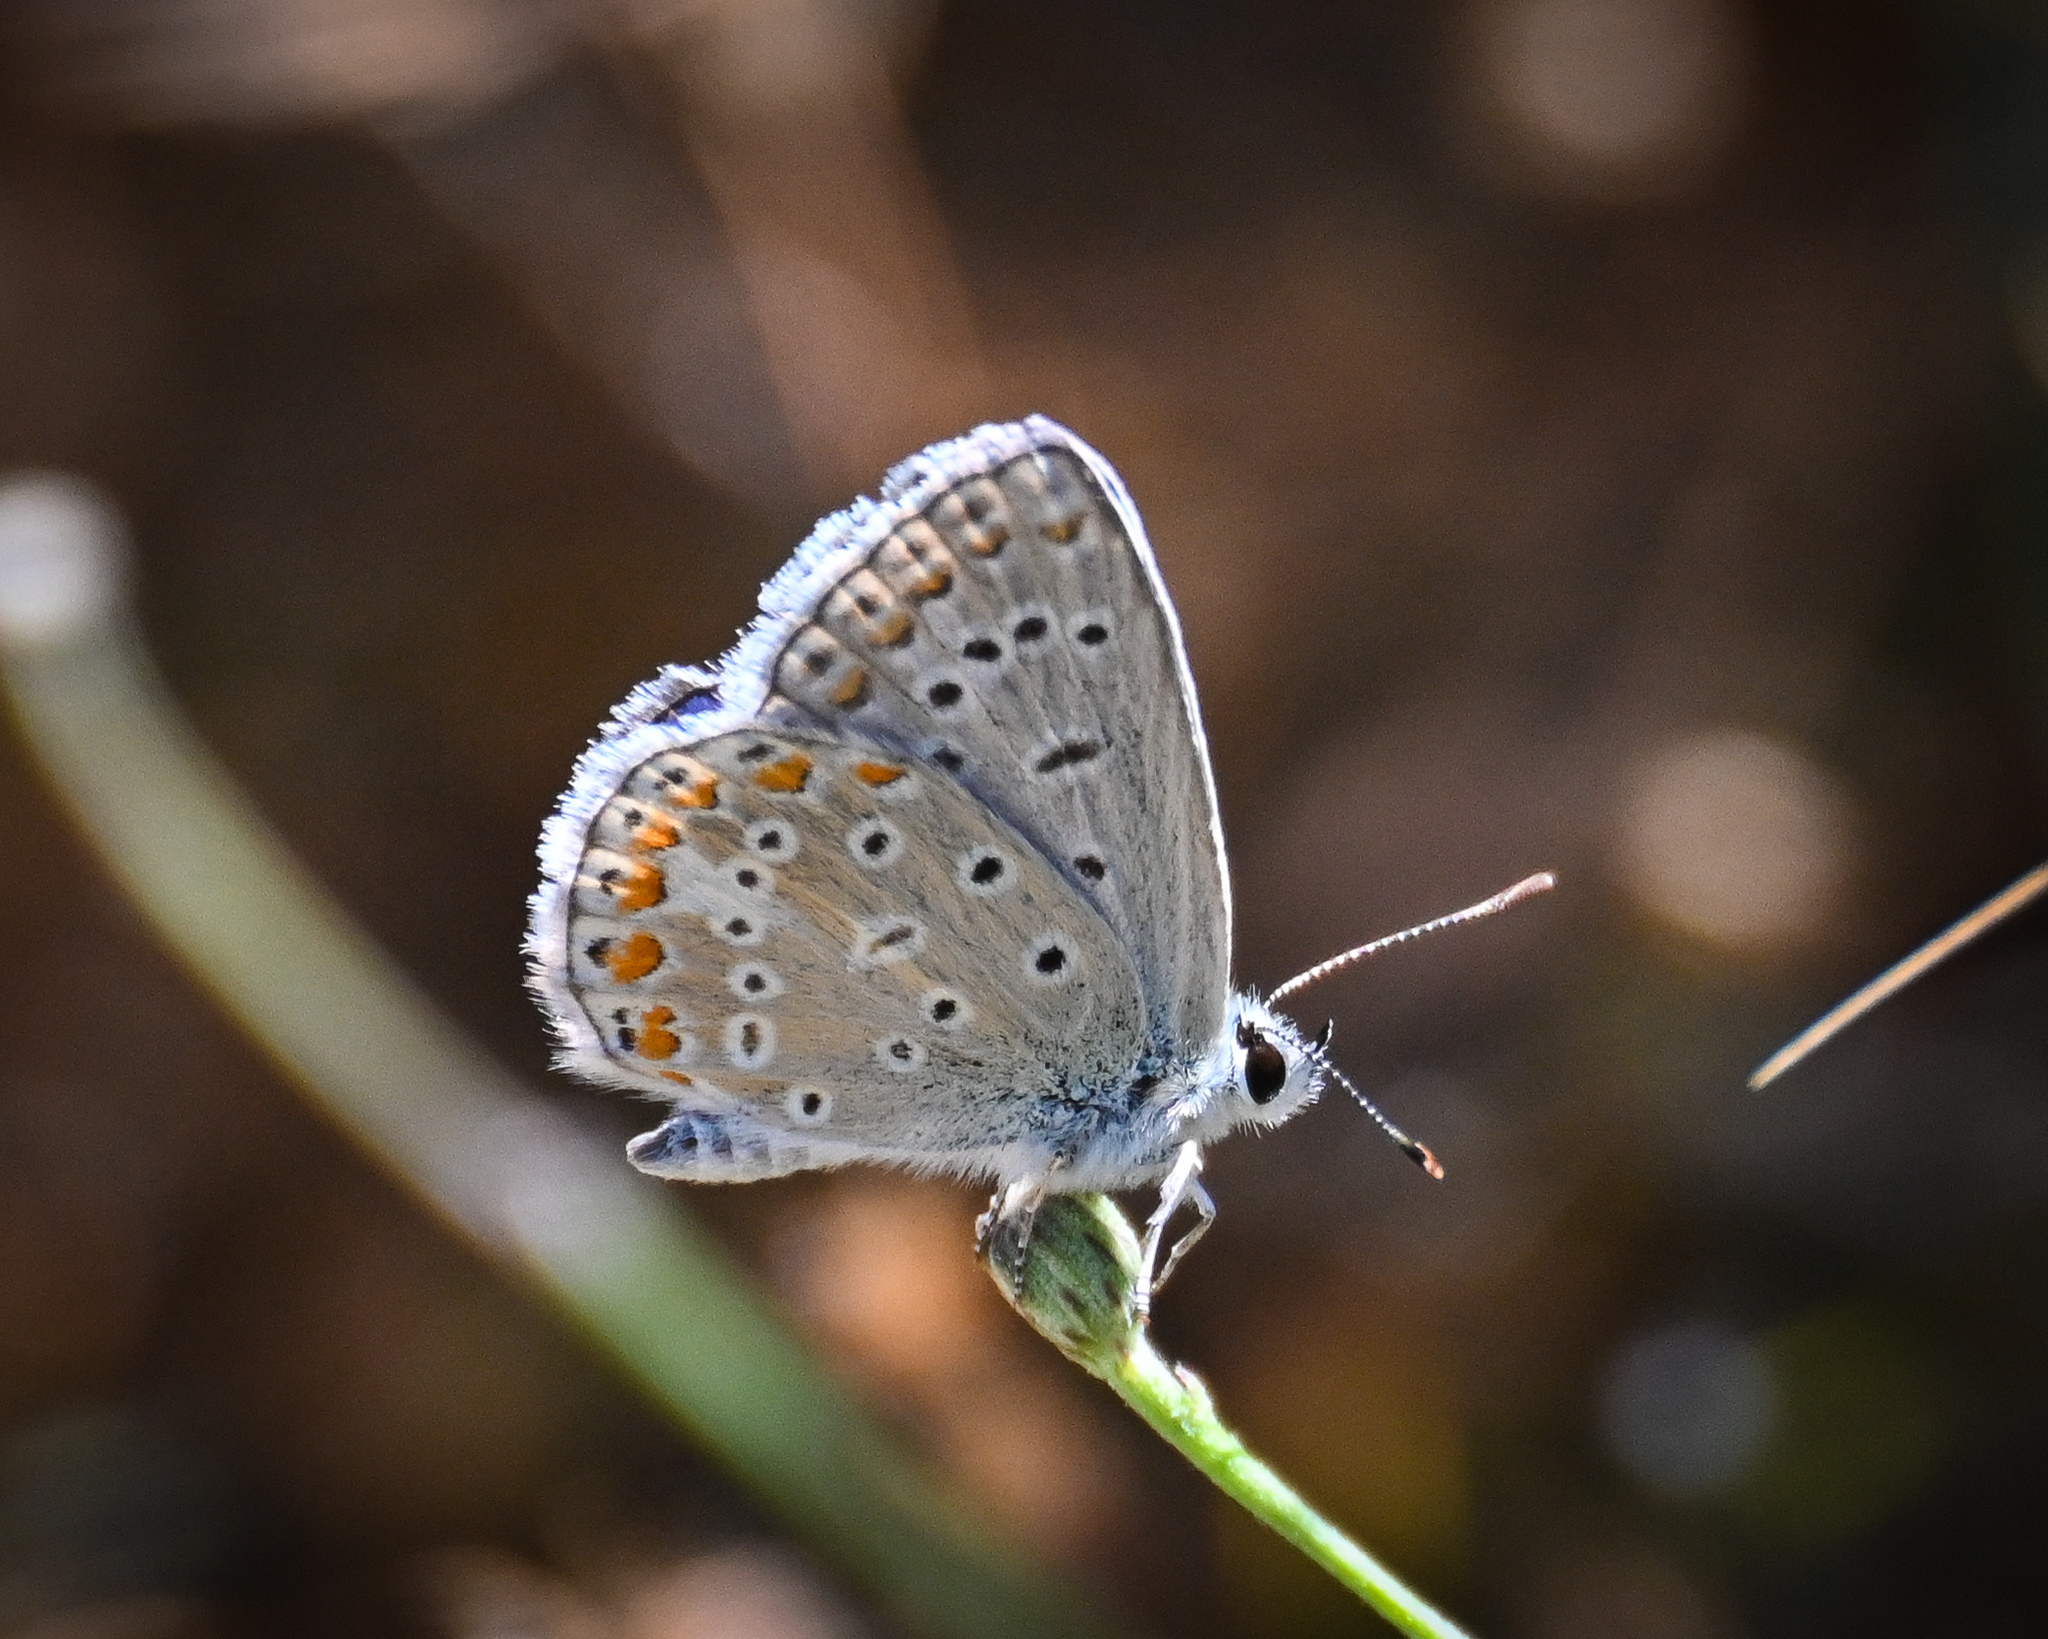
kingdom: Animalia
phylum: Arthropoda
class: Insecta
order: Lepidoptera
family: Lycaenidae
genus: Polyommatus
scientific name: Polyommatus icarus
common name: Common blue
